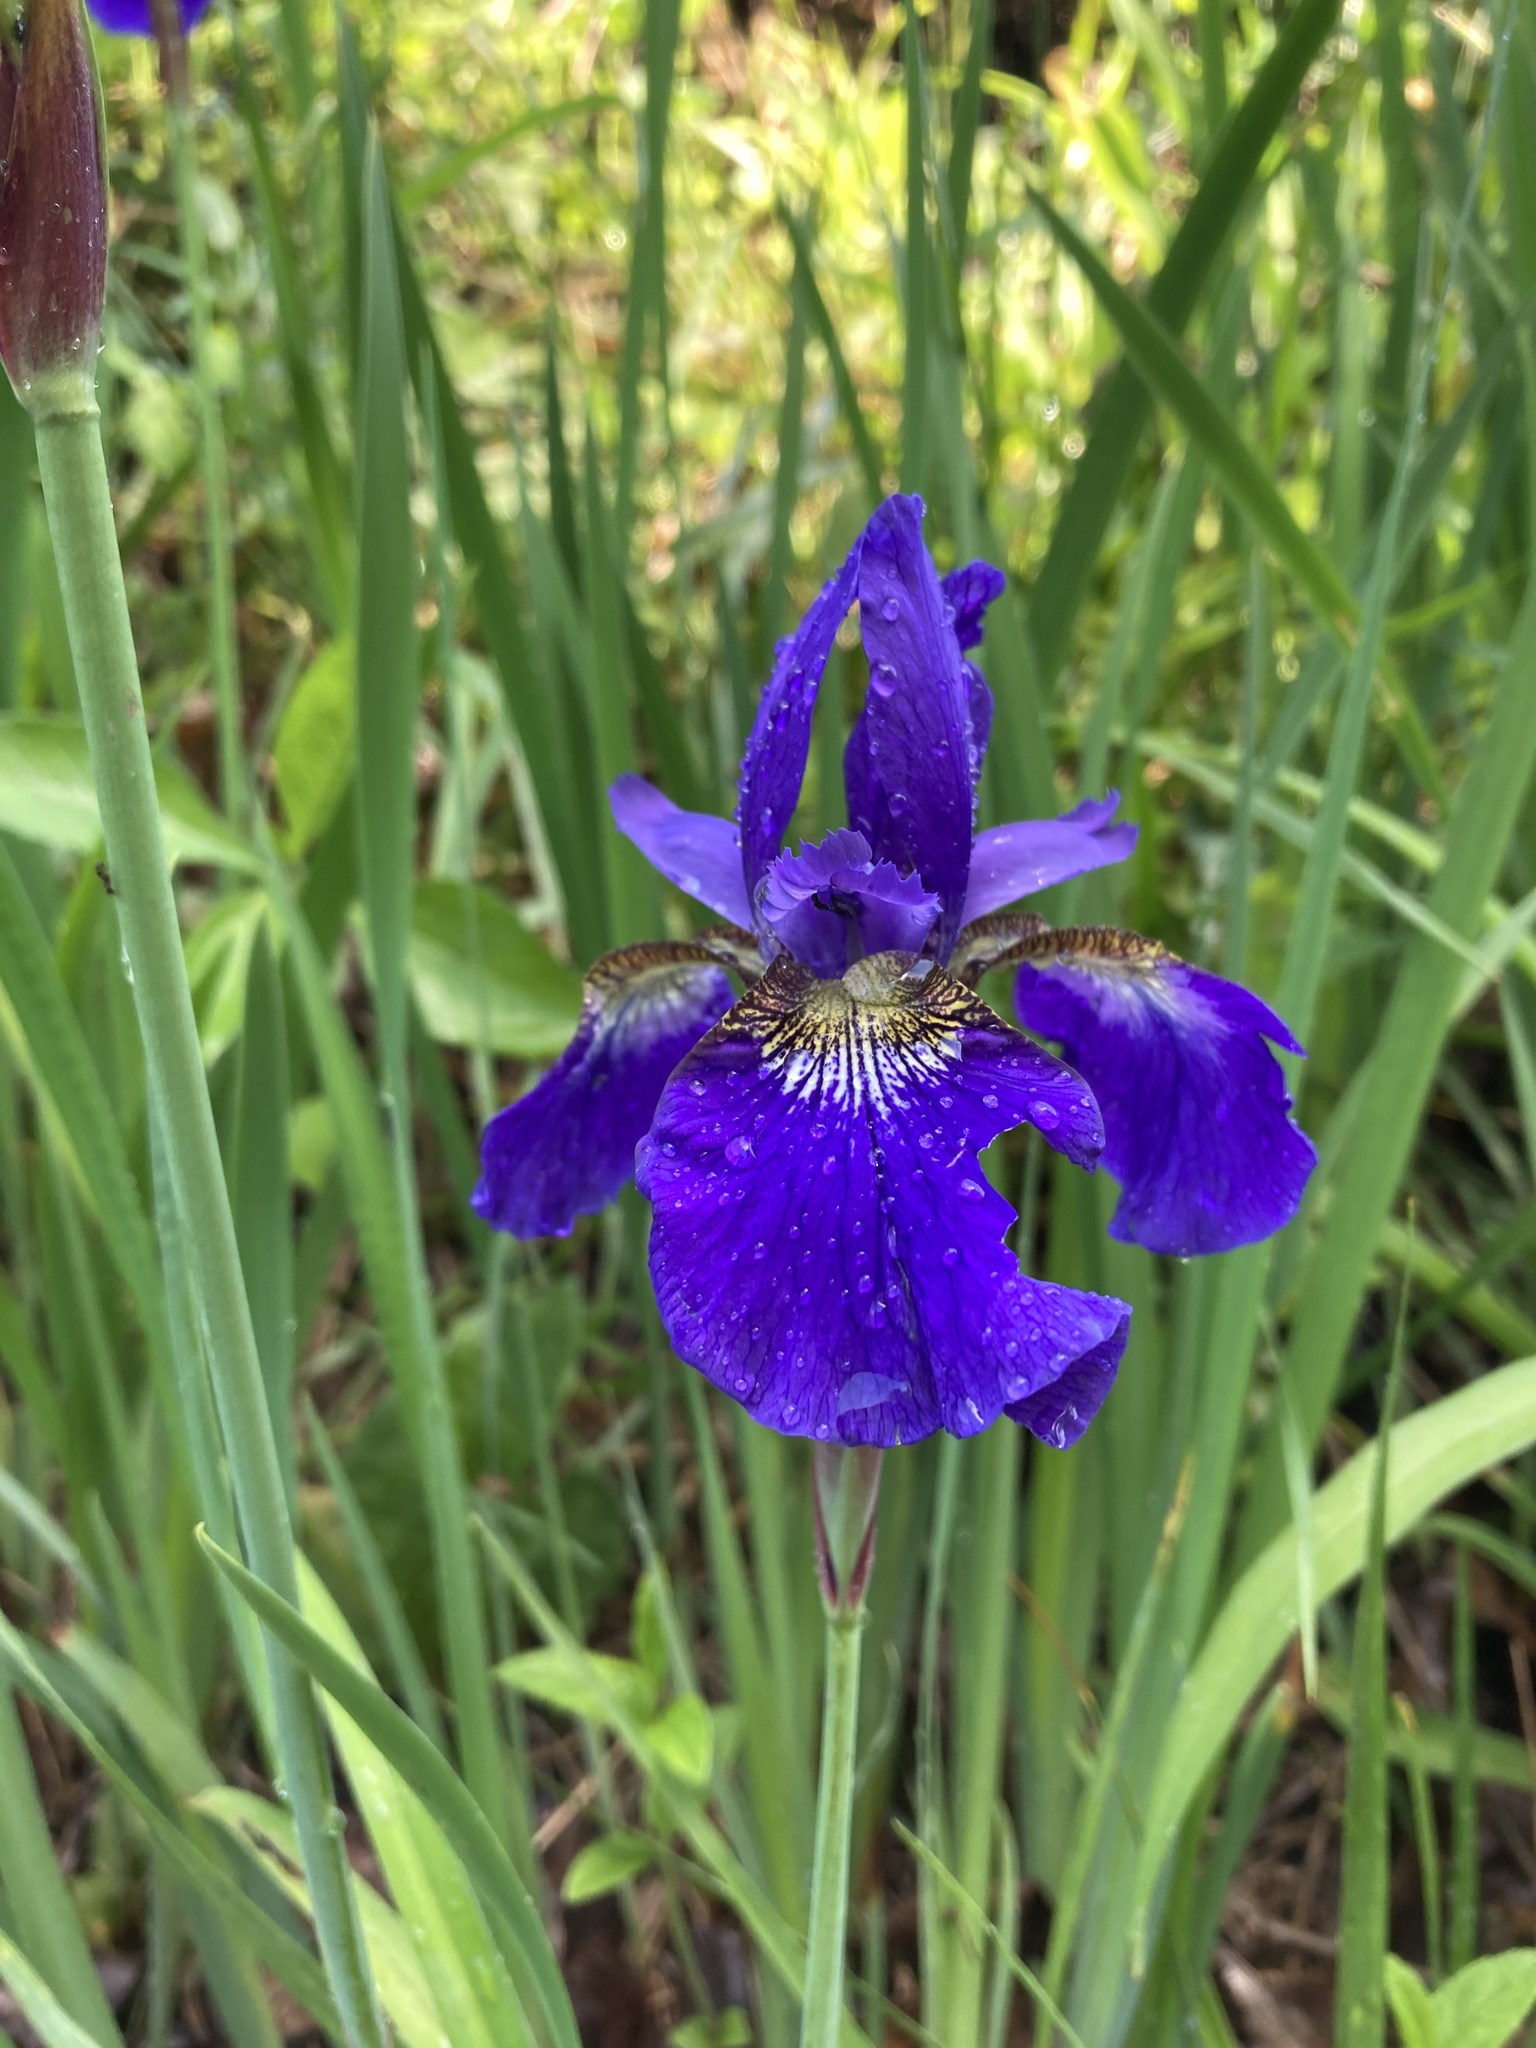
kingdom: Plantae
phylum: Tracheophyta
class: Liliopsida
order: Asparagales
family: Iridaceae
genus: Iris
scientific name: Iris sanguinea
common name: Blood iris
